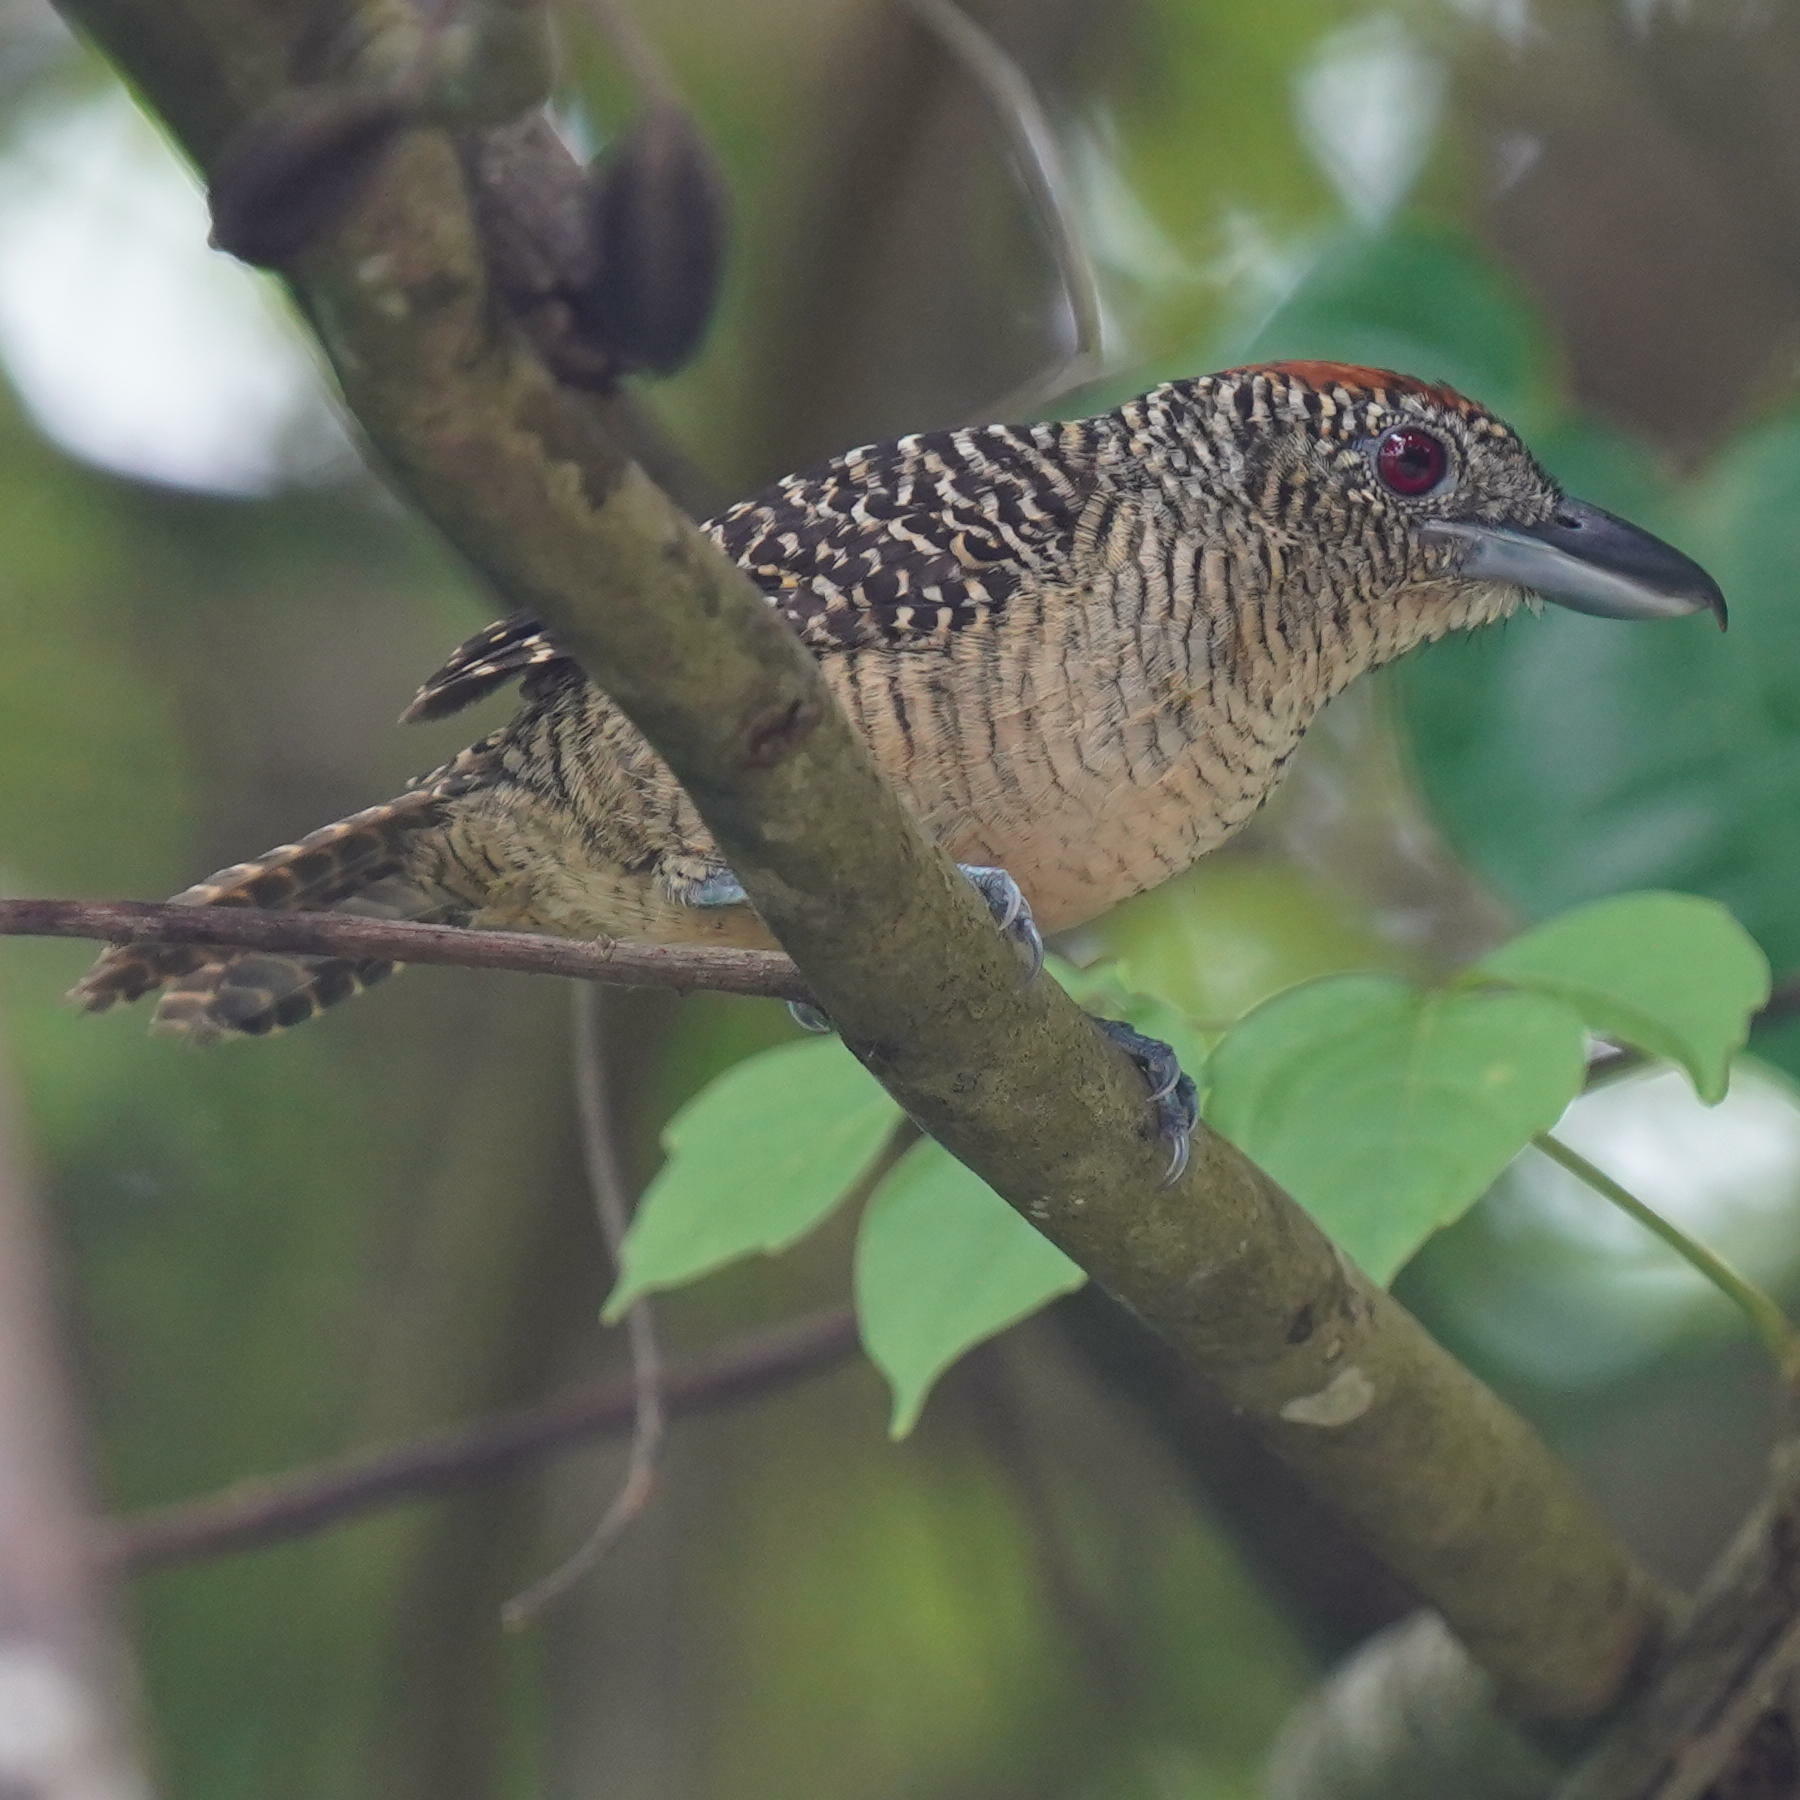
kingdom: Animalia
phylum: Chordata
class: Aves
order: Passeriformes
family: Thamnophilidae
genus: Cymbilaimus
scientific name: Cymbilaimus lineatus
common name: Fasciated antshrike
